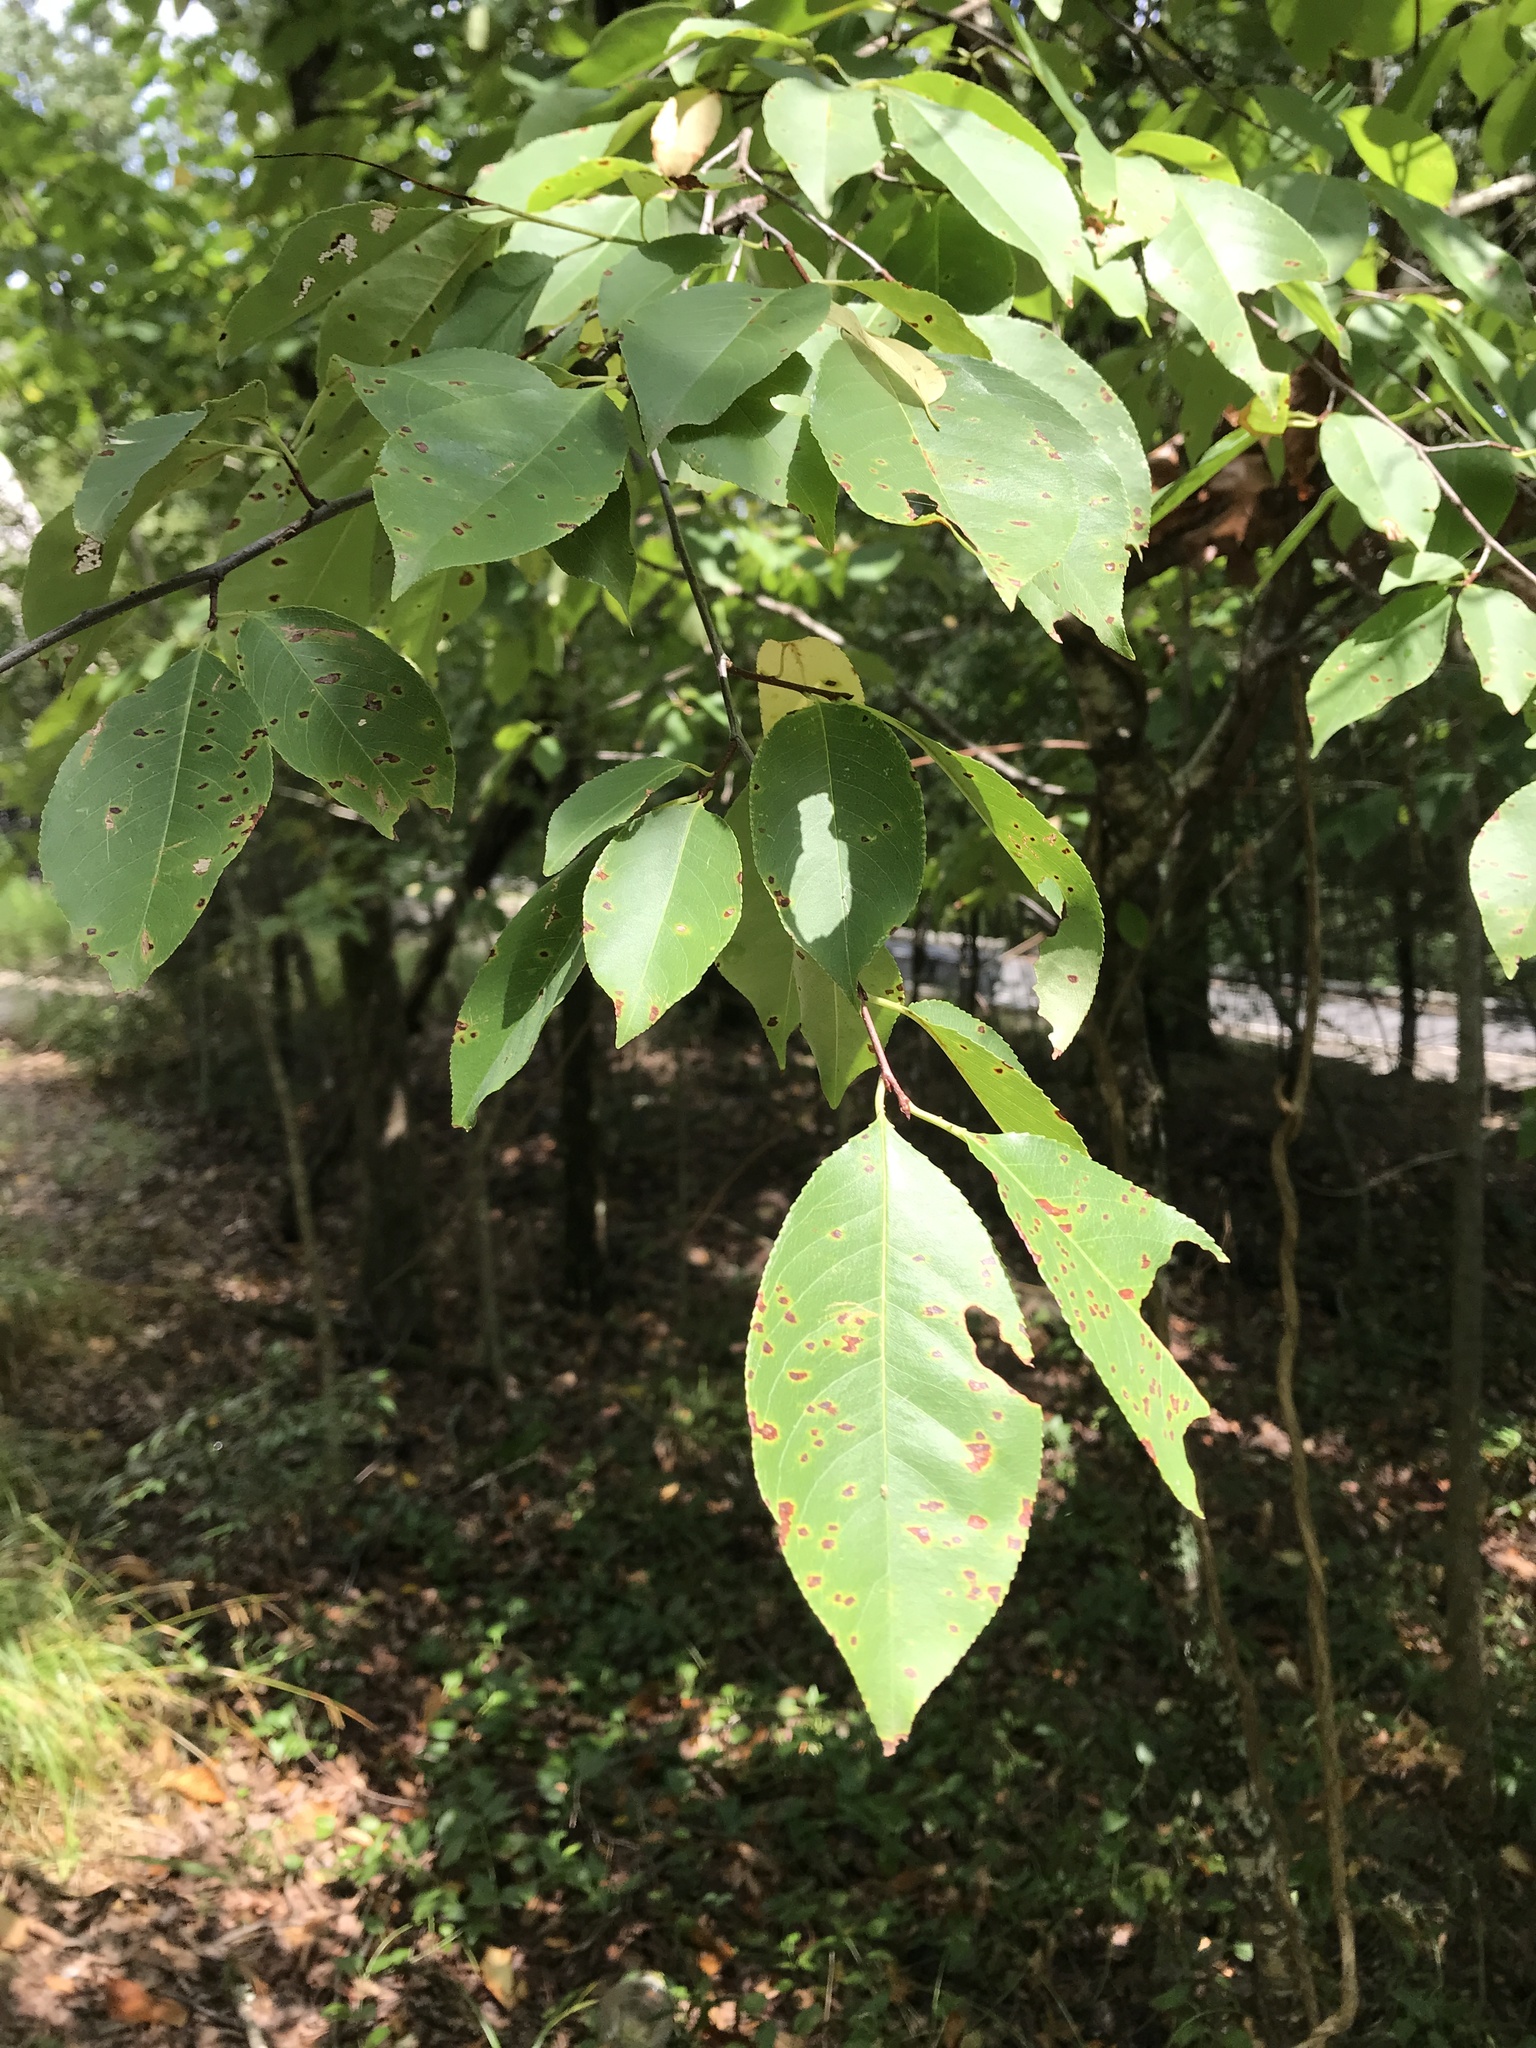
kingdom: Plantae
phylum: Tracheophyta
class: Magnoliopsida
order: Rosales
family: Rosaceae
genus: Prunus
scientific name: Prunus serotina
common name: Black cherry
